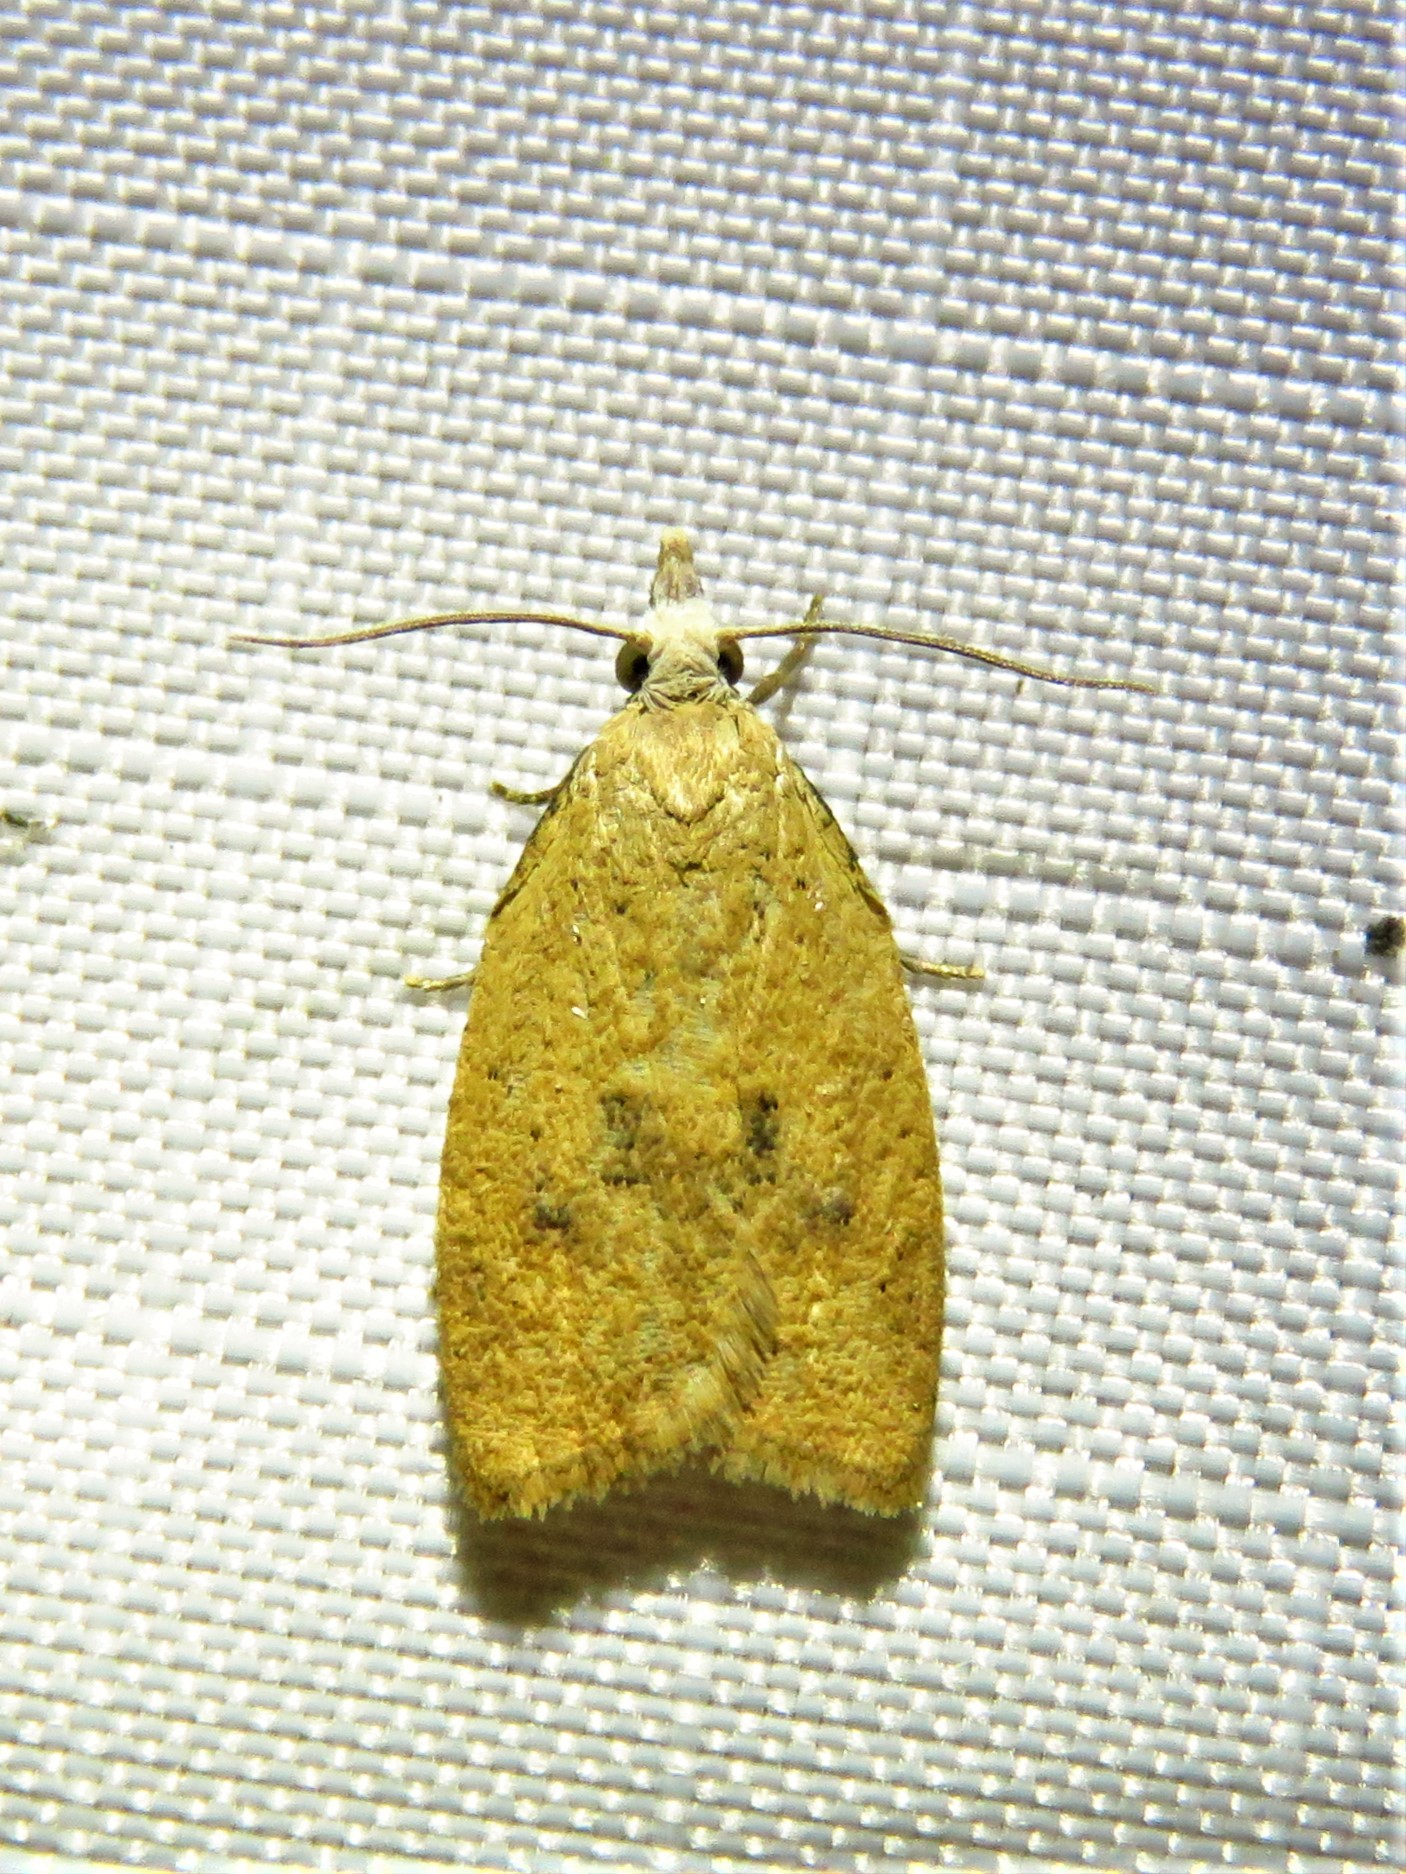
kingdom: Animalia
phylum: Arthropoda
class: Insecta
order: Lepidoptera
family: Tortricidae
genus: Sparganothoides
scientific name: Sparganothoides lentiginosana
